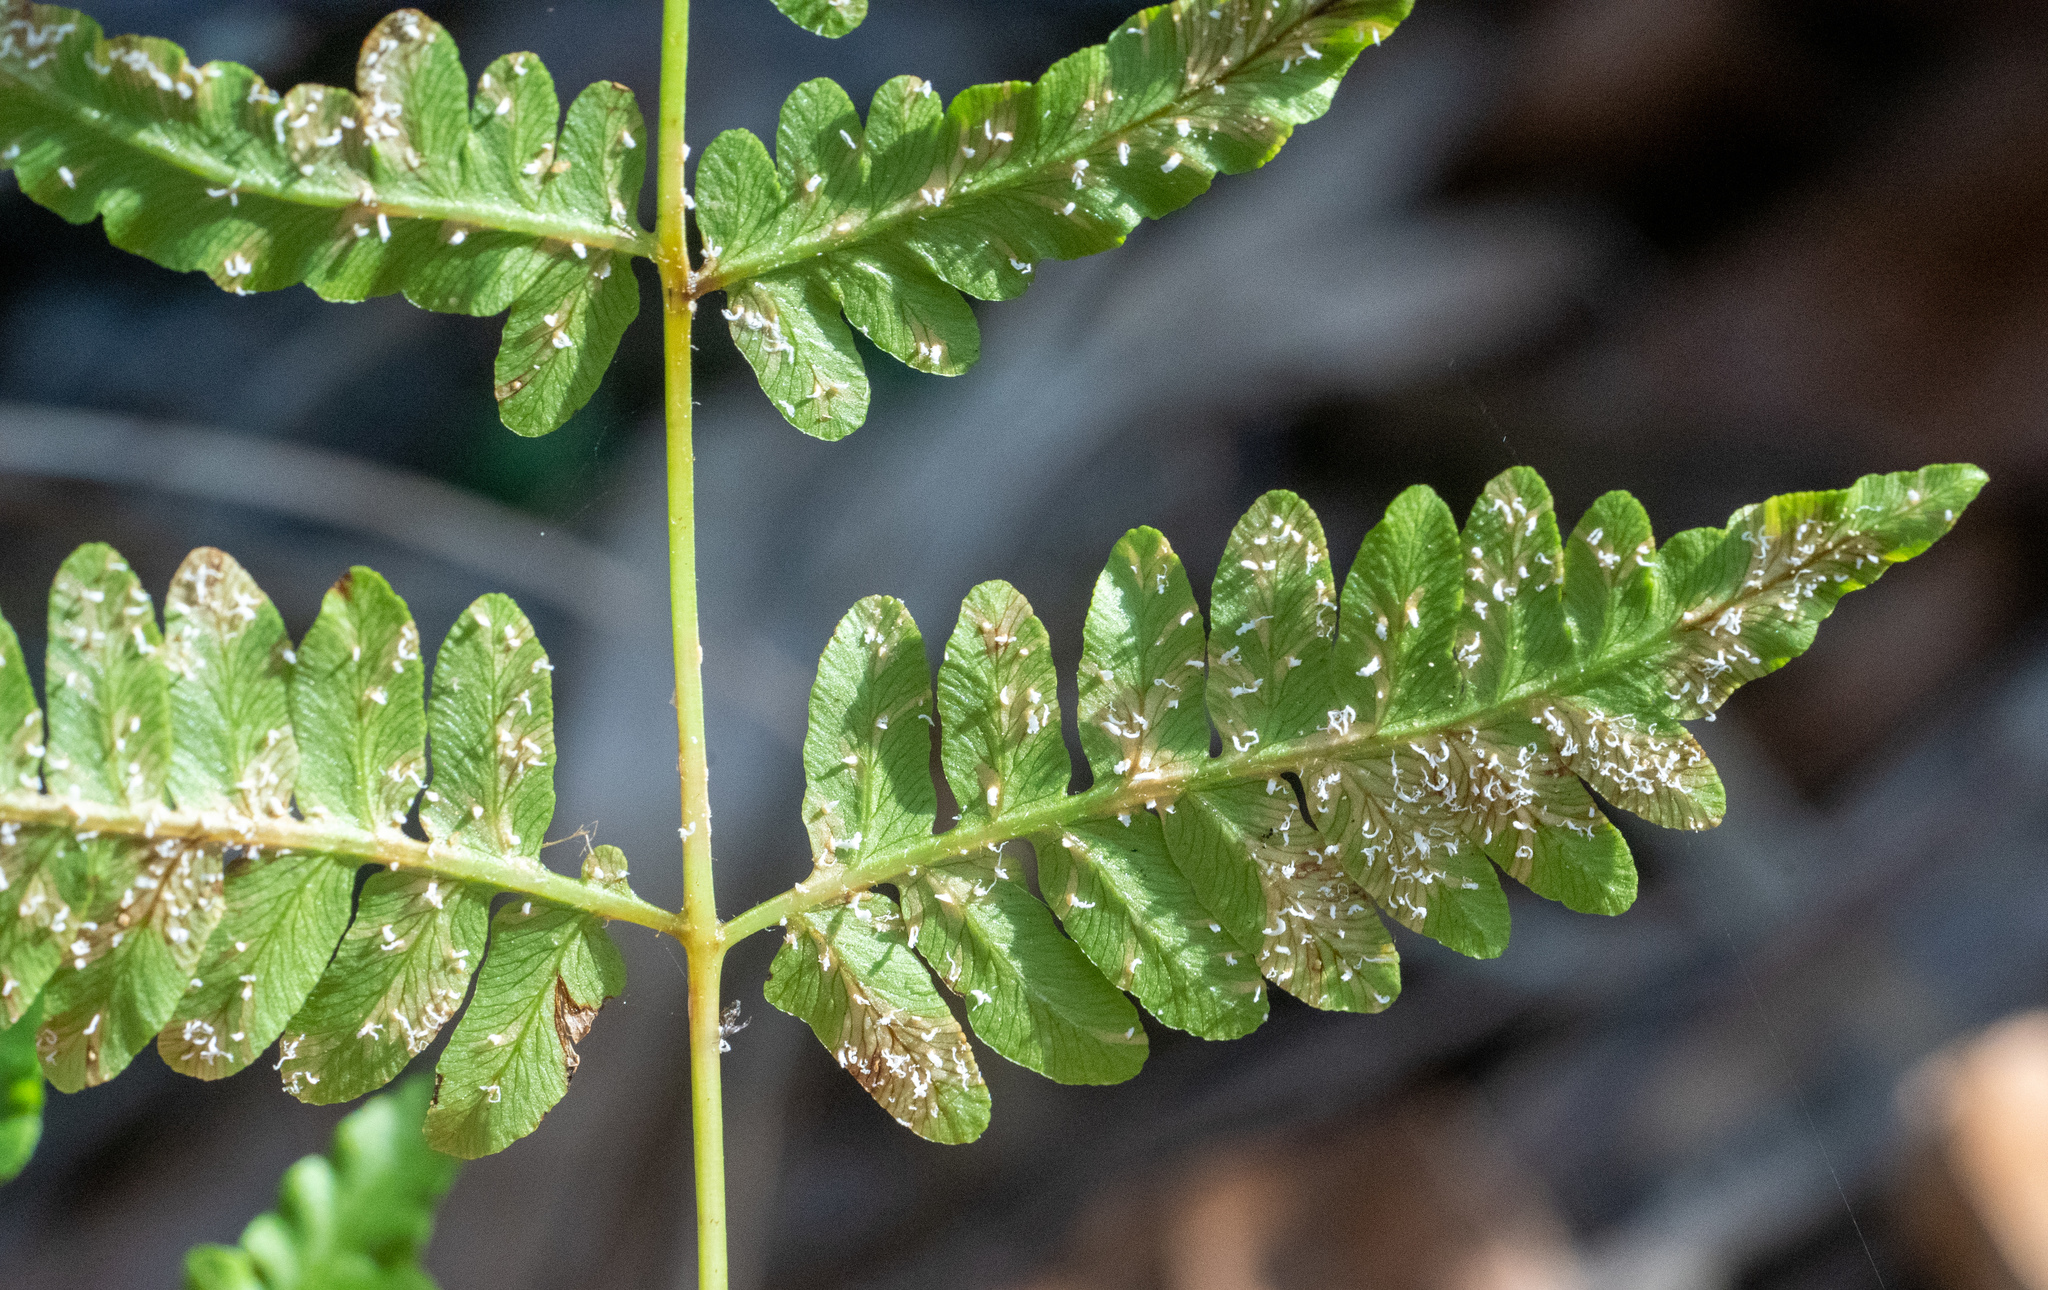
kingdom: Plantae
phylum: Tracheophyta
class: Polypodiopsida
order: Polypodiales
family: Dennstaedtiaceae
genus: Pteridium
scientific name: Pteridium
